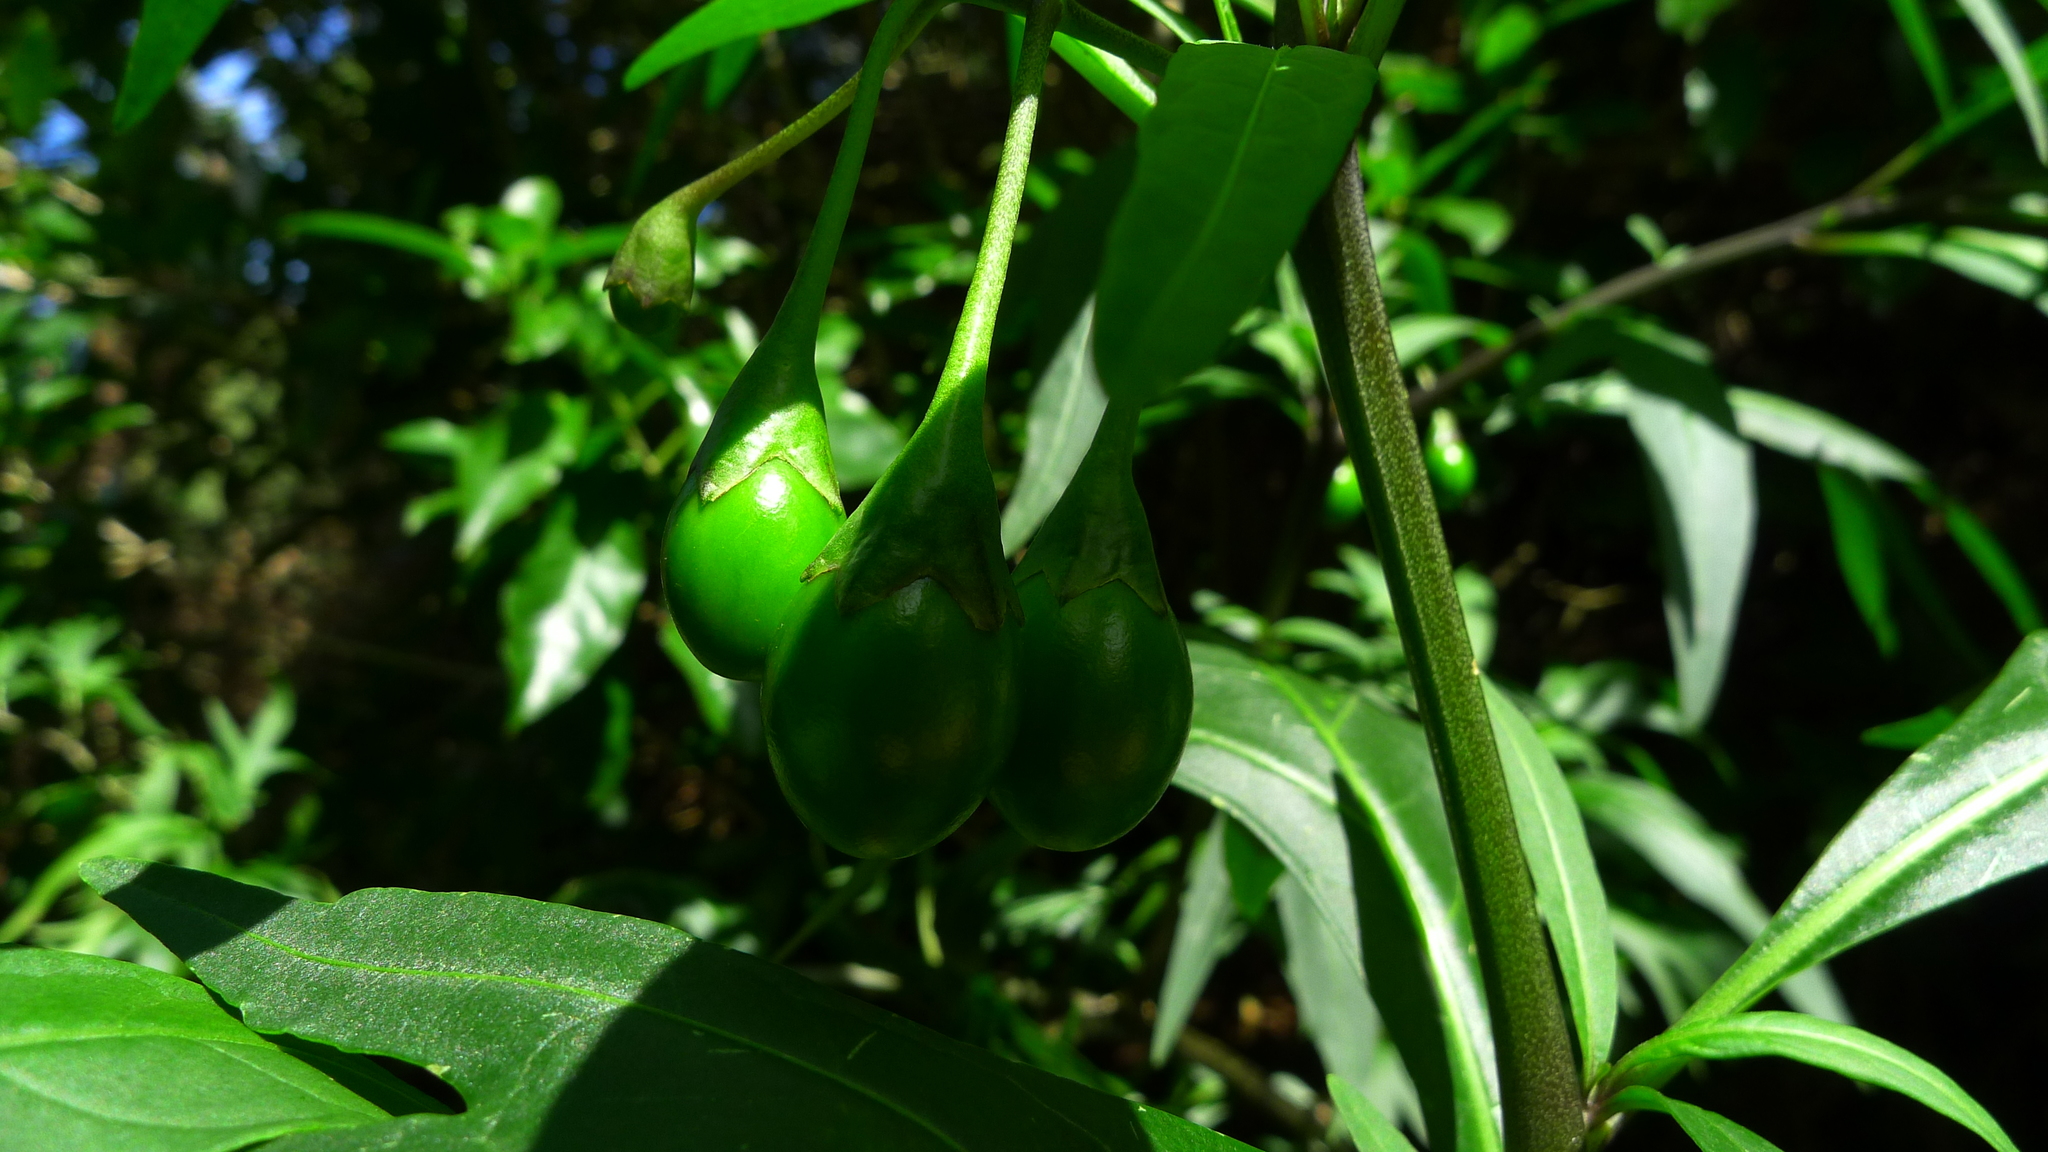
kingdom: Plantae
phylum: Tracheophyta
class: Magnoliopsida
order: Solanales
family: Solanaceae
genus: Solanum
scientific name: Solanum laciniatum
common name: Kangaroo-apple
